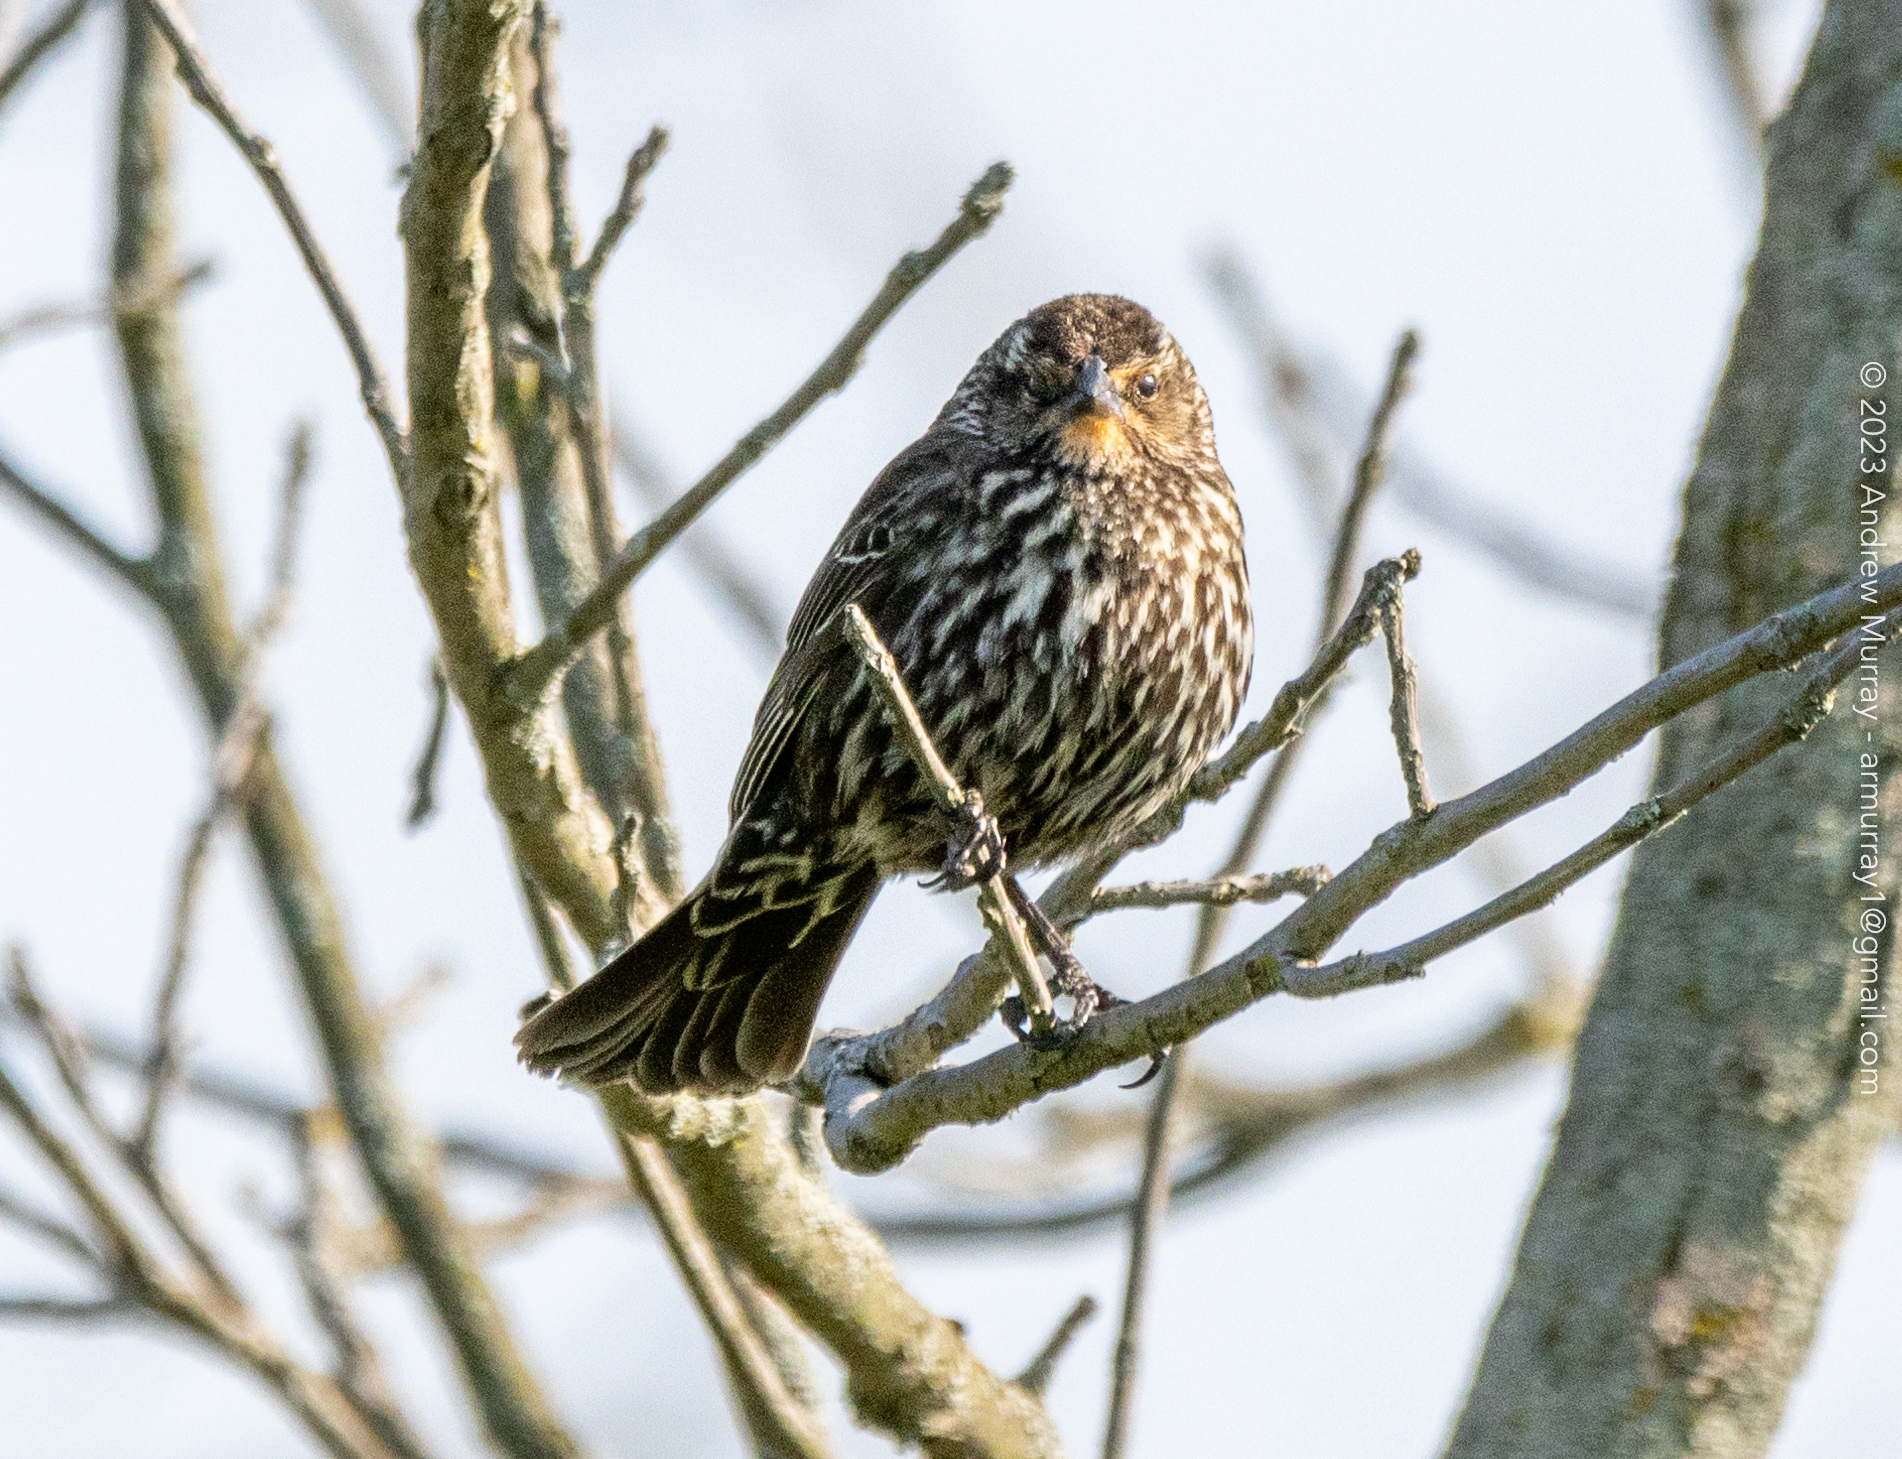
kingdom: Animalia
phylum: Chordata
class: Aves
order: Passeriformes
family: Icteridae
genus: Agelaius
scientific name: Agelaius phoeniceus
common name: Red-winged blackbird
